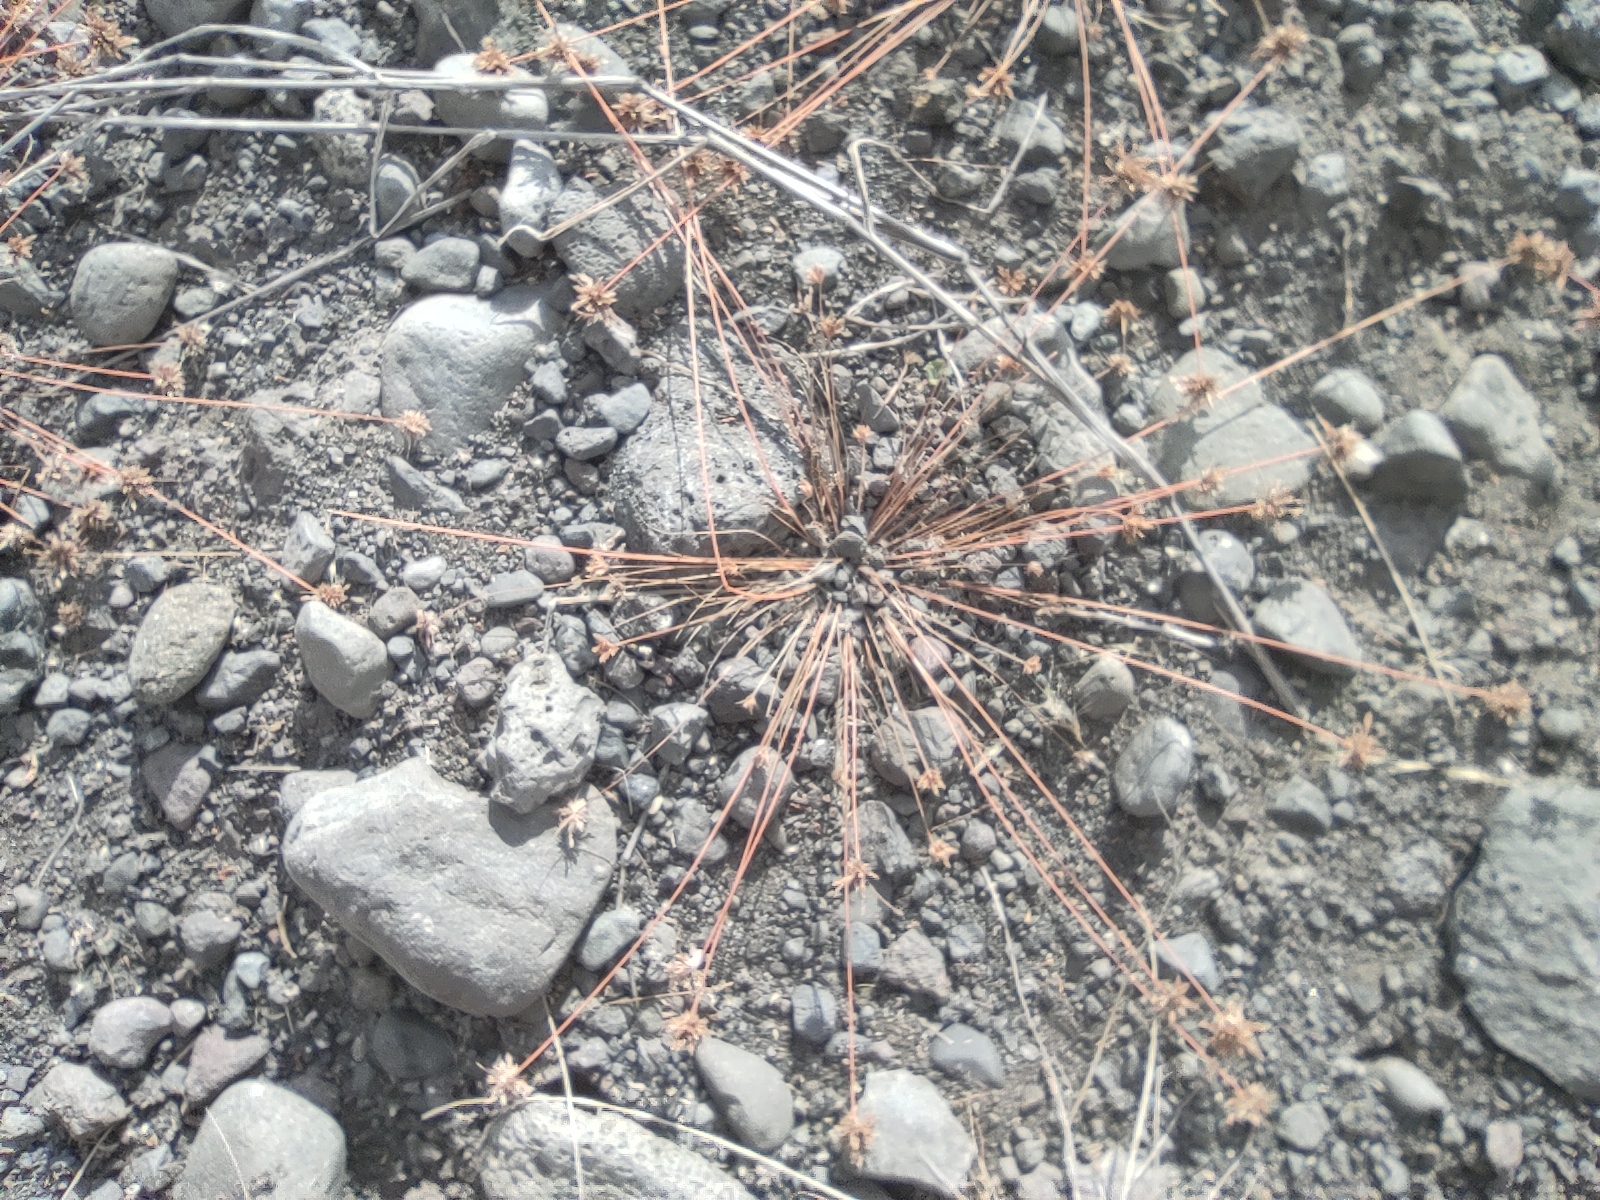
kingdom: Plantae
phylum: Tracheophyta
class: Liliopsida
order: Poales
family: Cyperaceae
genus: Bulbostylis
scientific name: Bulbostylis barbata
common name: Watergrass
